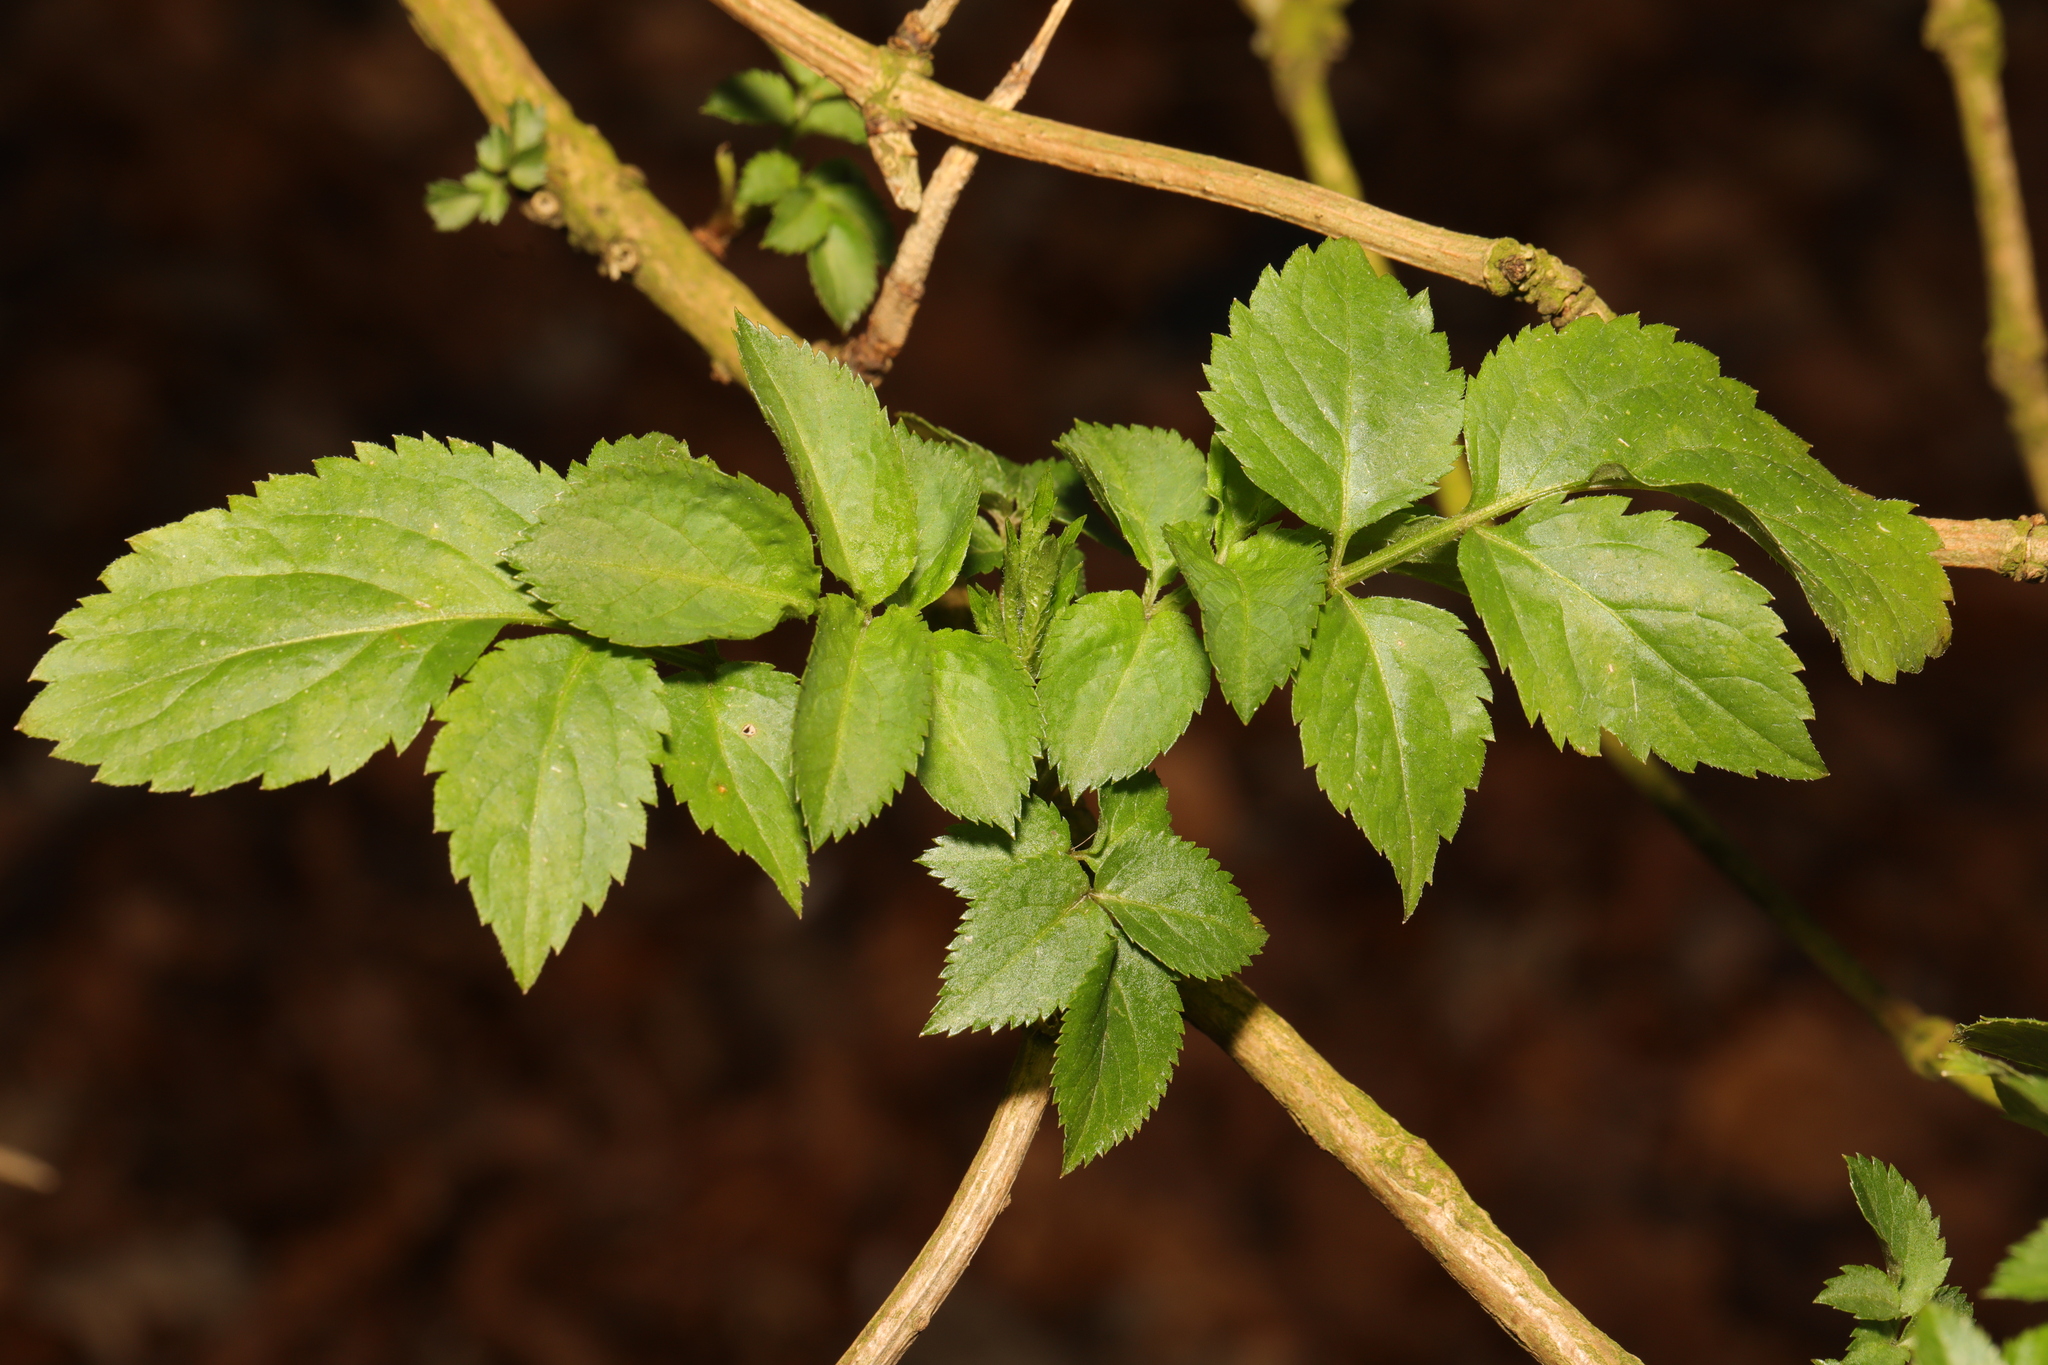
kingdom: Plantae
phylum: Tracheophyta
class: Magnoliopsida
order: Dipsacales
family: Viburnaceae
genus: Sambucus
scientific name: Sambucus nigra
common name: Elder
